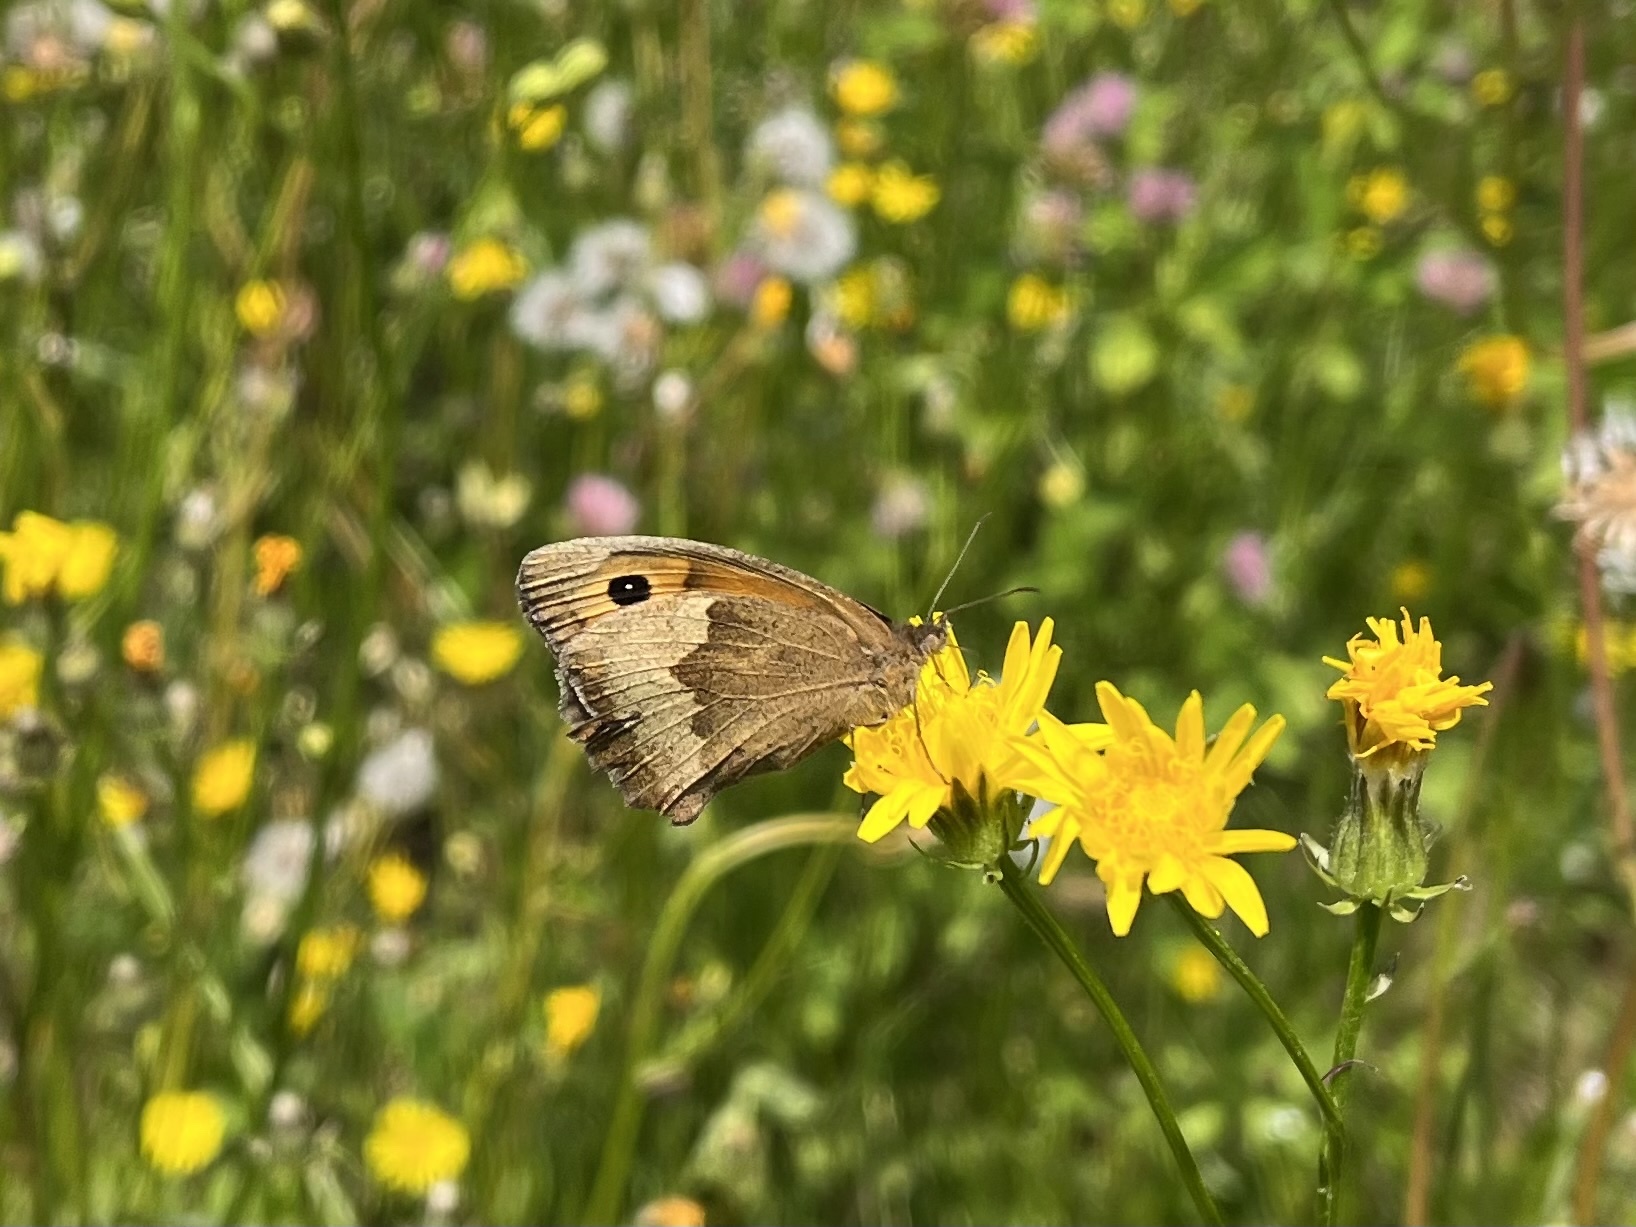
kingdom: Animalia
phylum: Arthropoda
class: Insecta
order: Lepidoptera
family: Nymphalidae
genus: Maniola
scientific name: Maniola jurtina
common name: Meadow brown
